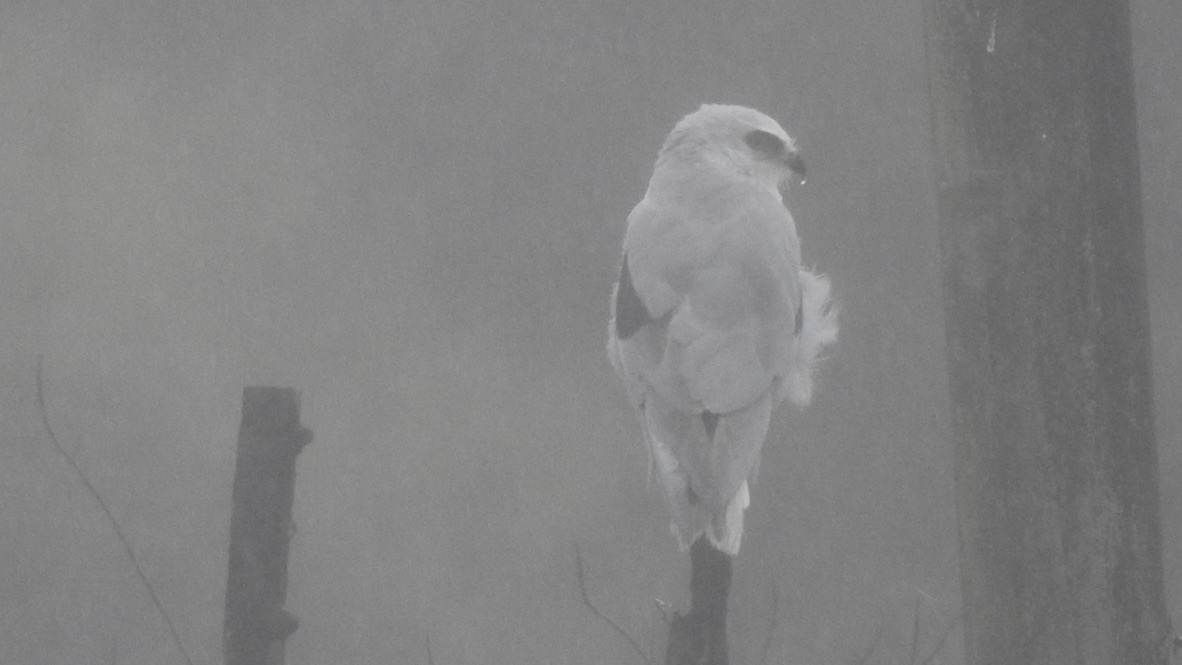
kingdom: Animalia
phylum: Chordata
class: Aves
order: Accipitriformes
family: Accipitridae
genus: Elanus
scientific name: Elanus leucurus
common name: White-tailed kite
